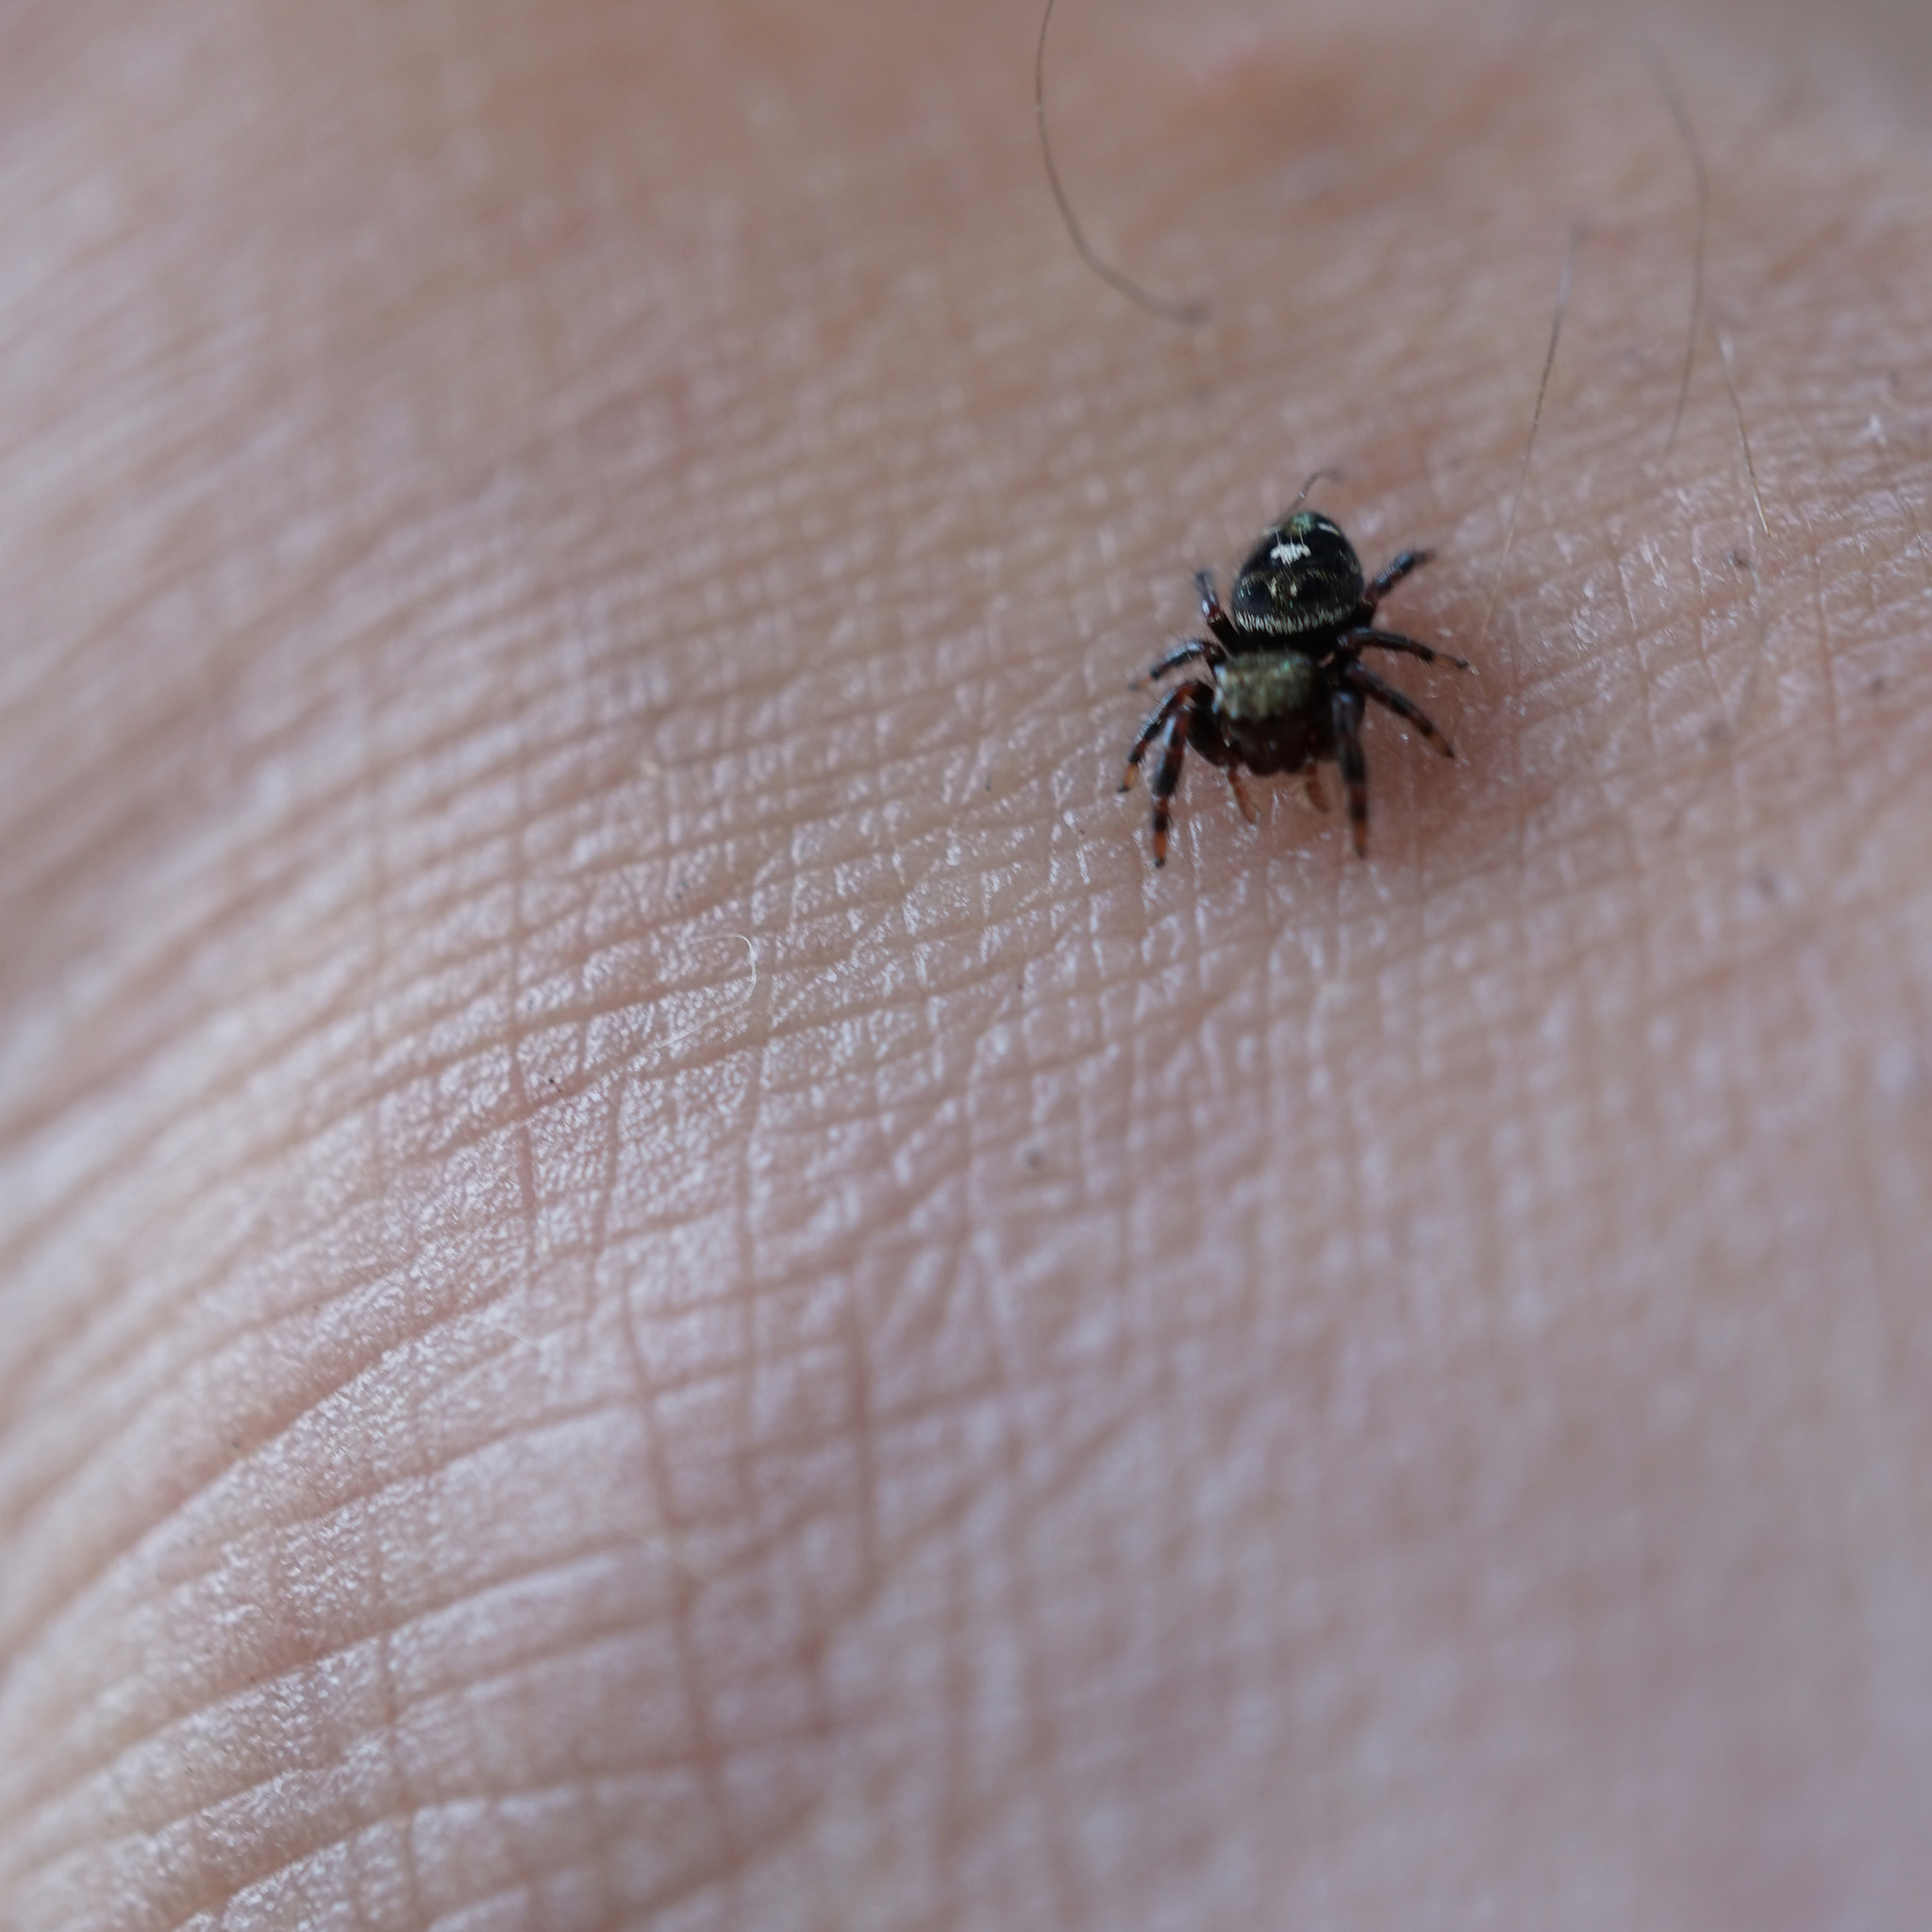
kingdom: Animalia
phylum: Arthropoda
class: Arachnida
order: Araneae
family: Salticidae
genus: Phidippus
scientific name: Phidippus audax
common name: Bold jumper
